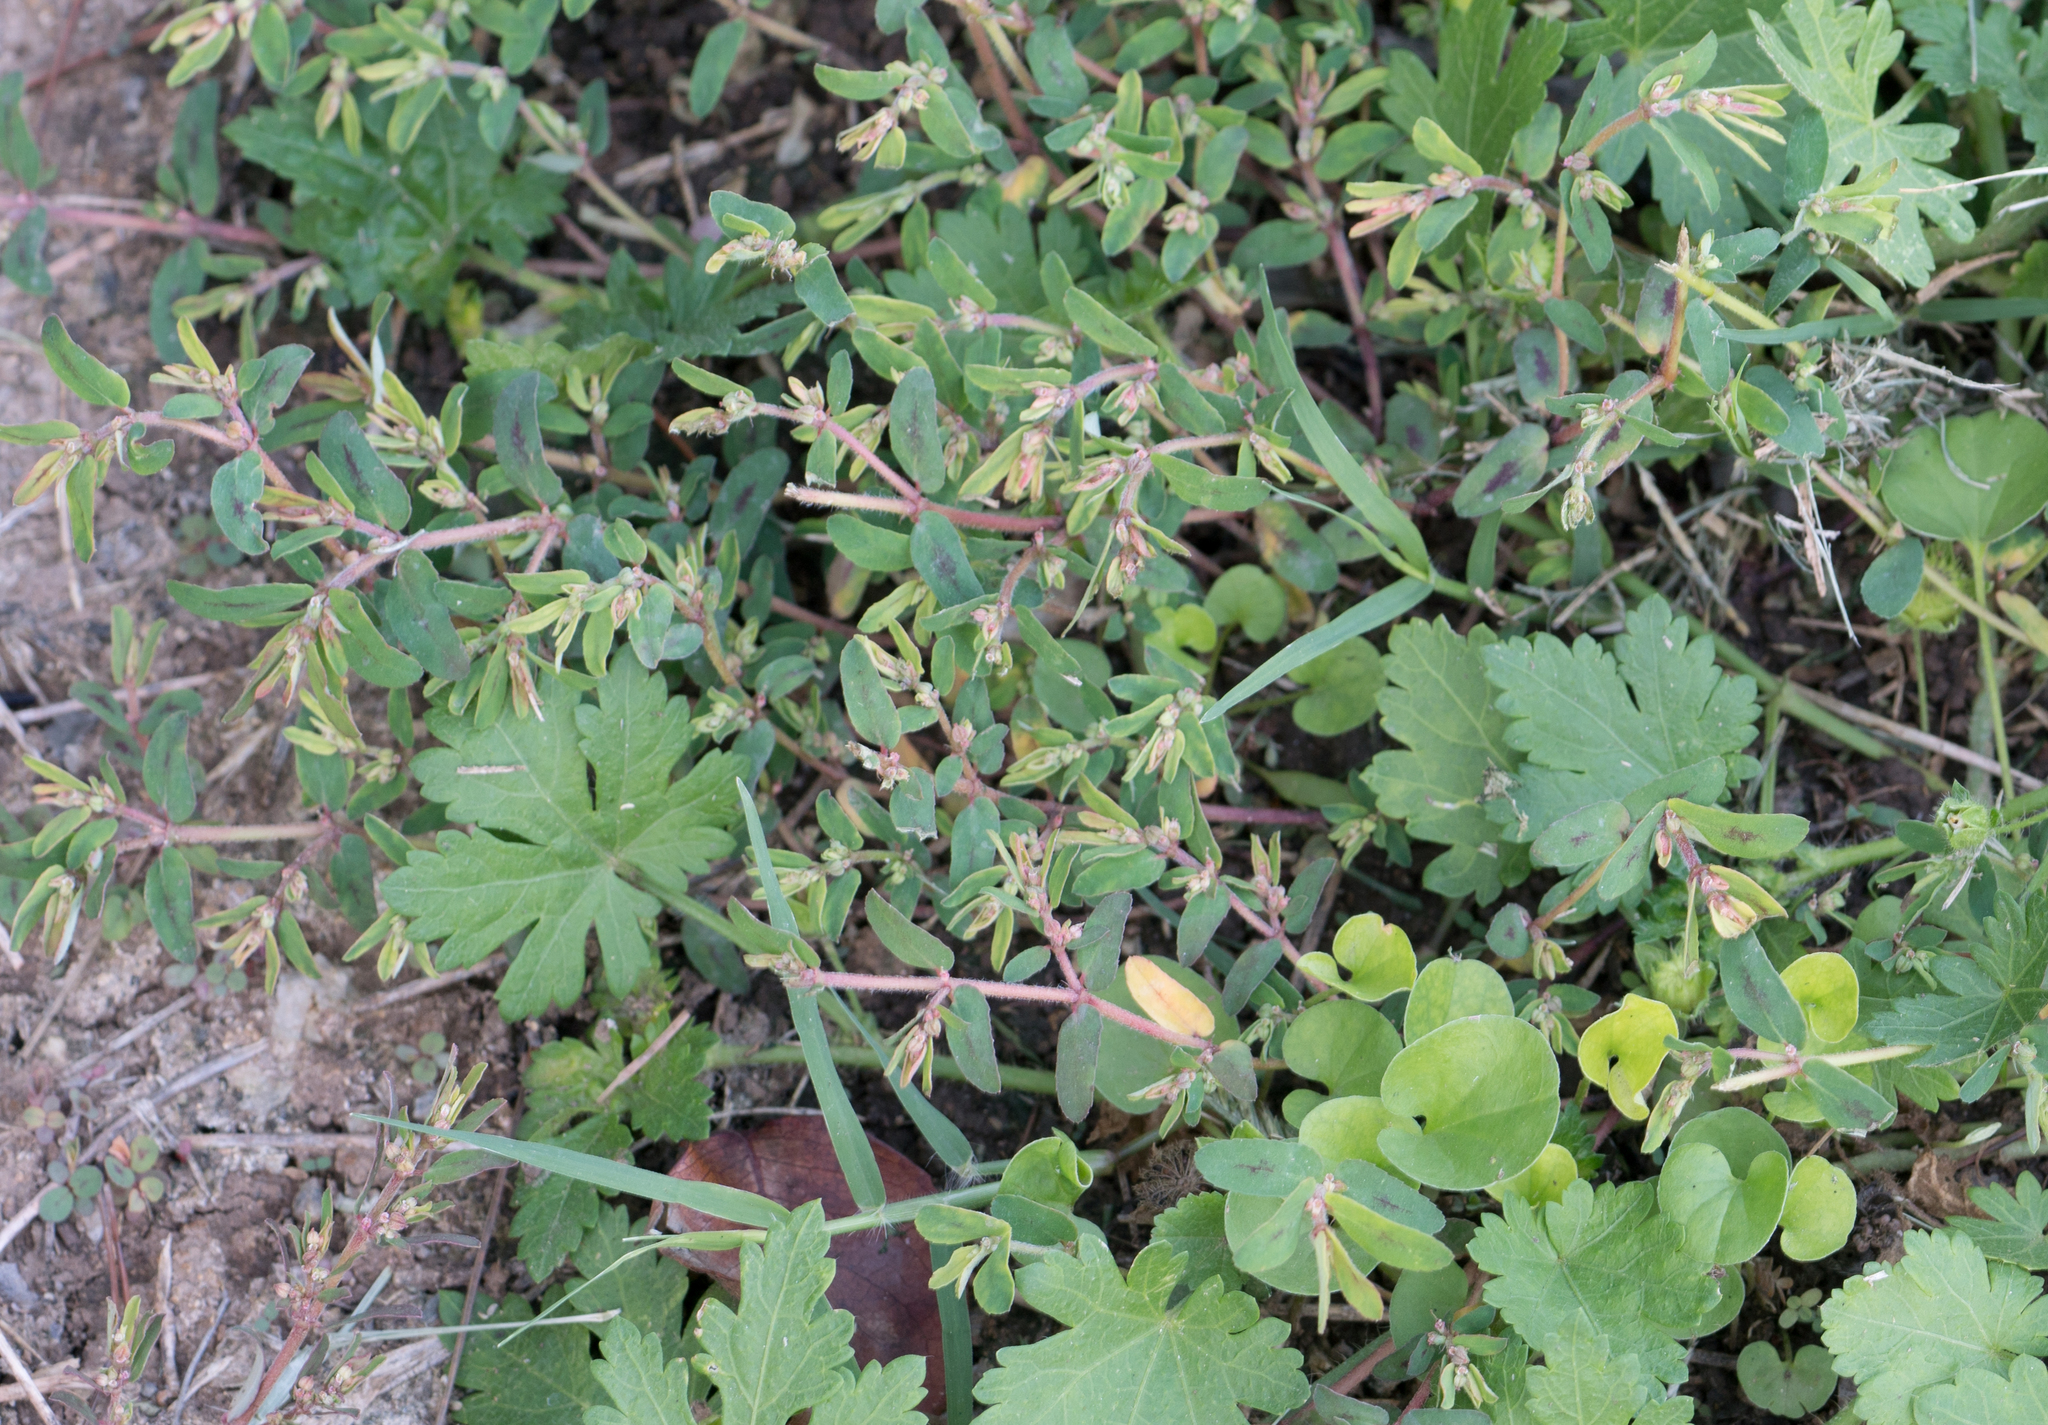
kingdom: Plantae
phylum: Tracheophyta
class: Magnoliopsida
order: Malpighiales
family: Euphorbiaceae
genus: Euphorbia
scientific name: Euphorbia maculata
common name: Spotted spurge
